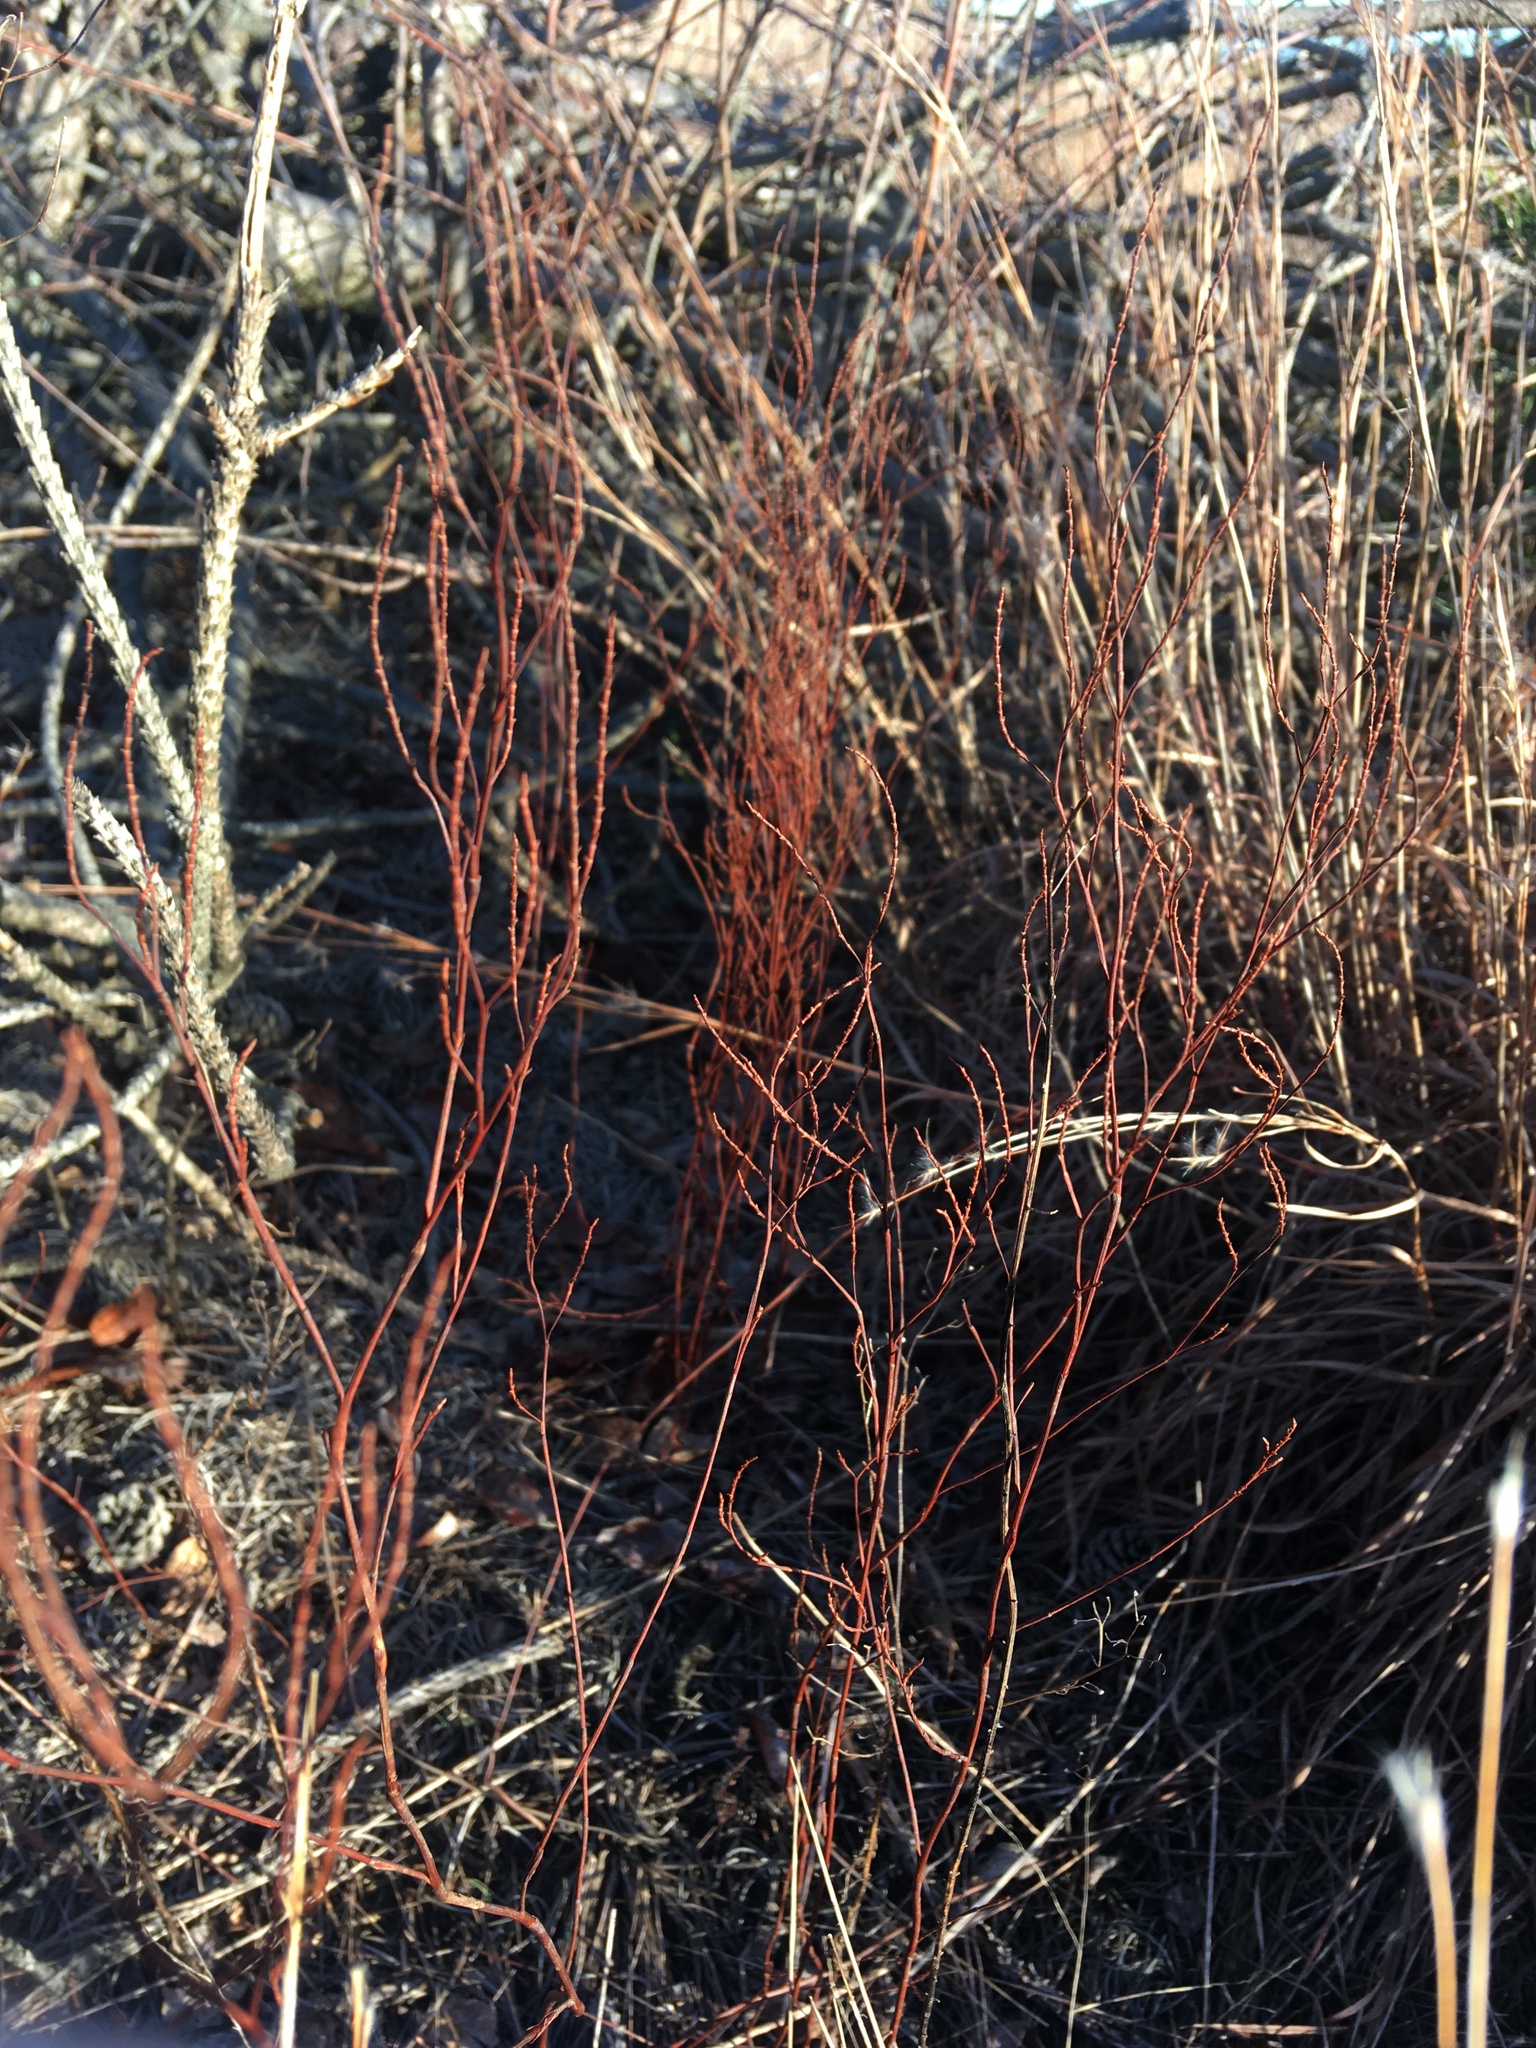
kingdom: Plantae
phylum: Tracheophyta
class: Magnoliopsida
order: Caryophyllales
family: Polygonaceae
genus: Polygonella
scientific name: Polygonella articulata
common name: Coastal jointweed
